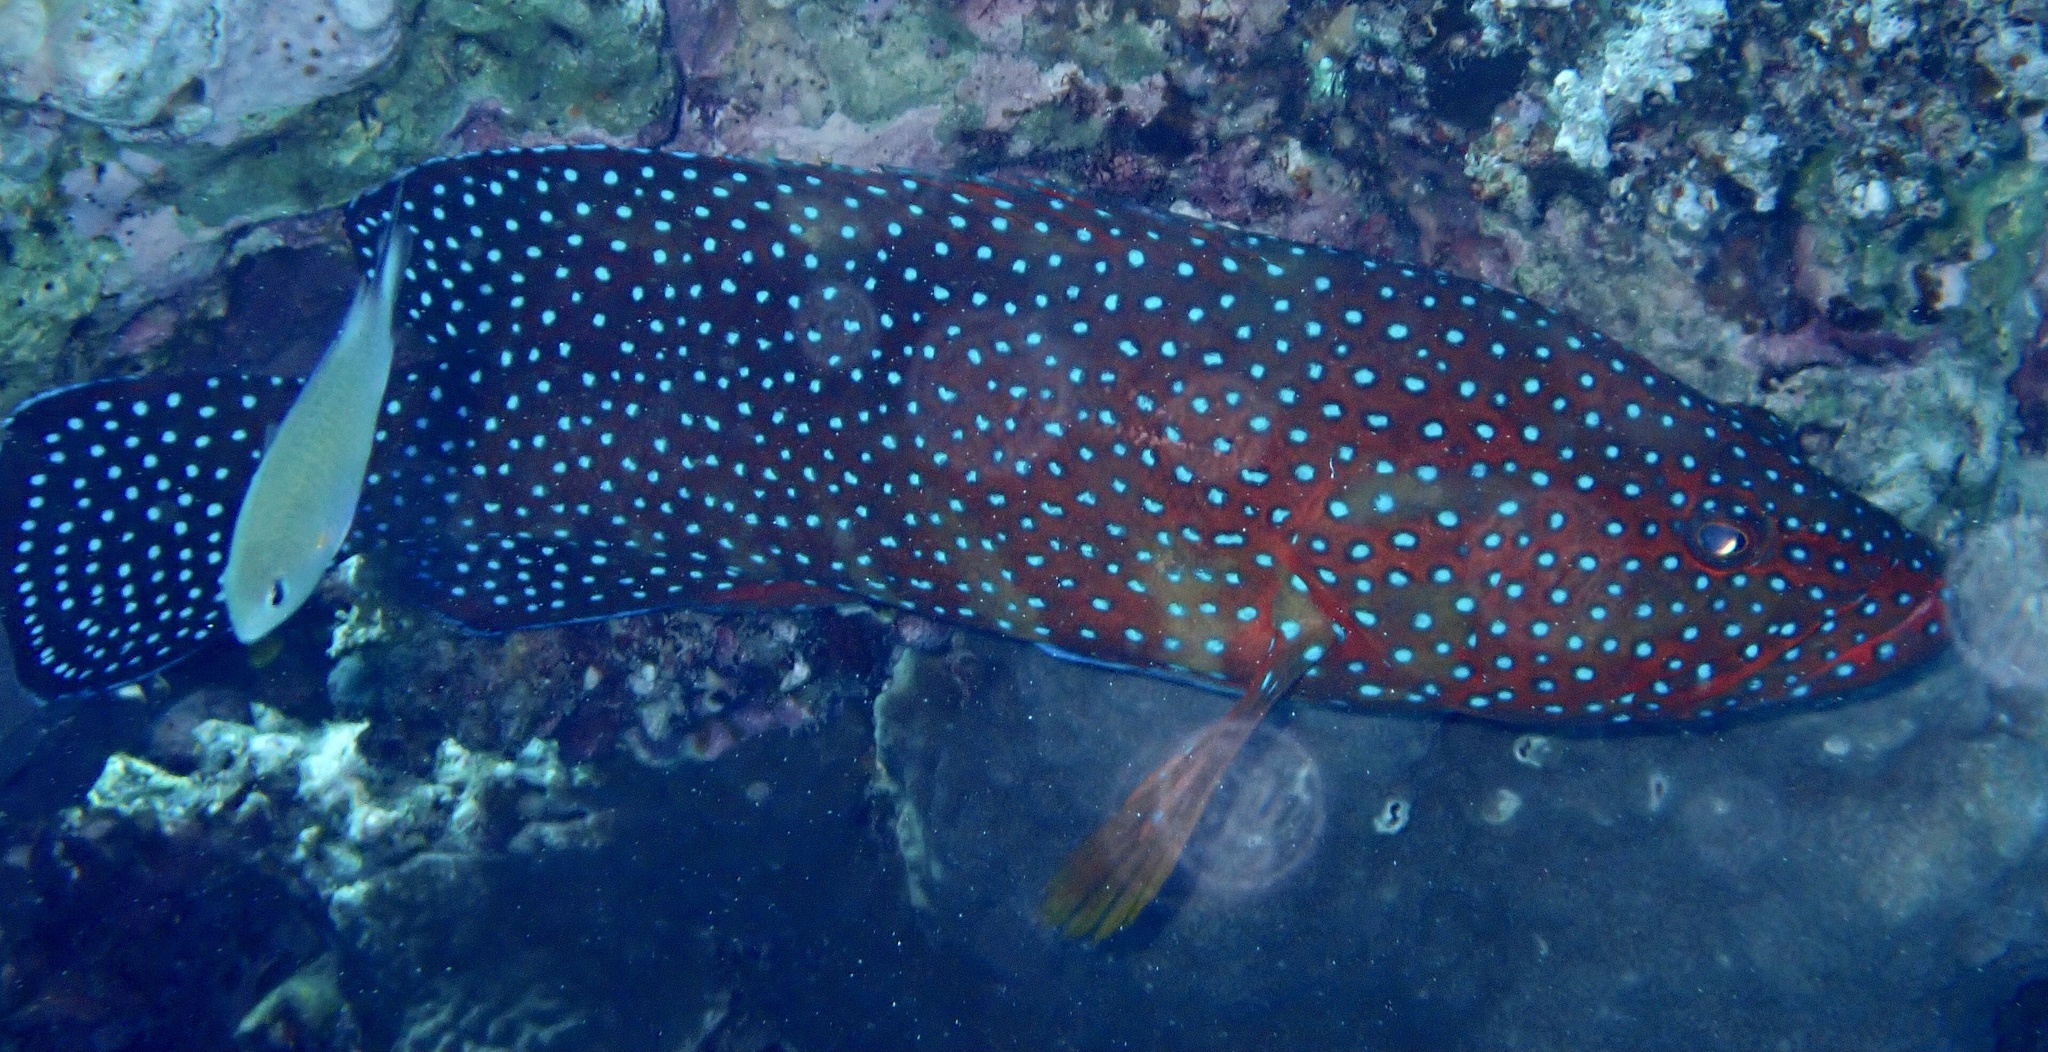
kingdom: Animalia
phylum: Chordata
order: Perciformes
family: Serranidae
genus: Cephalopholis
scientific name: Cephalopholis miniata
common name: Coral hind
